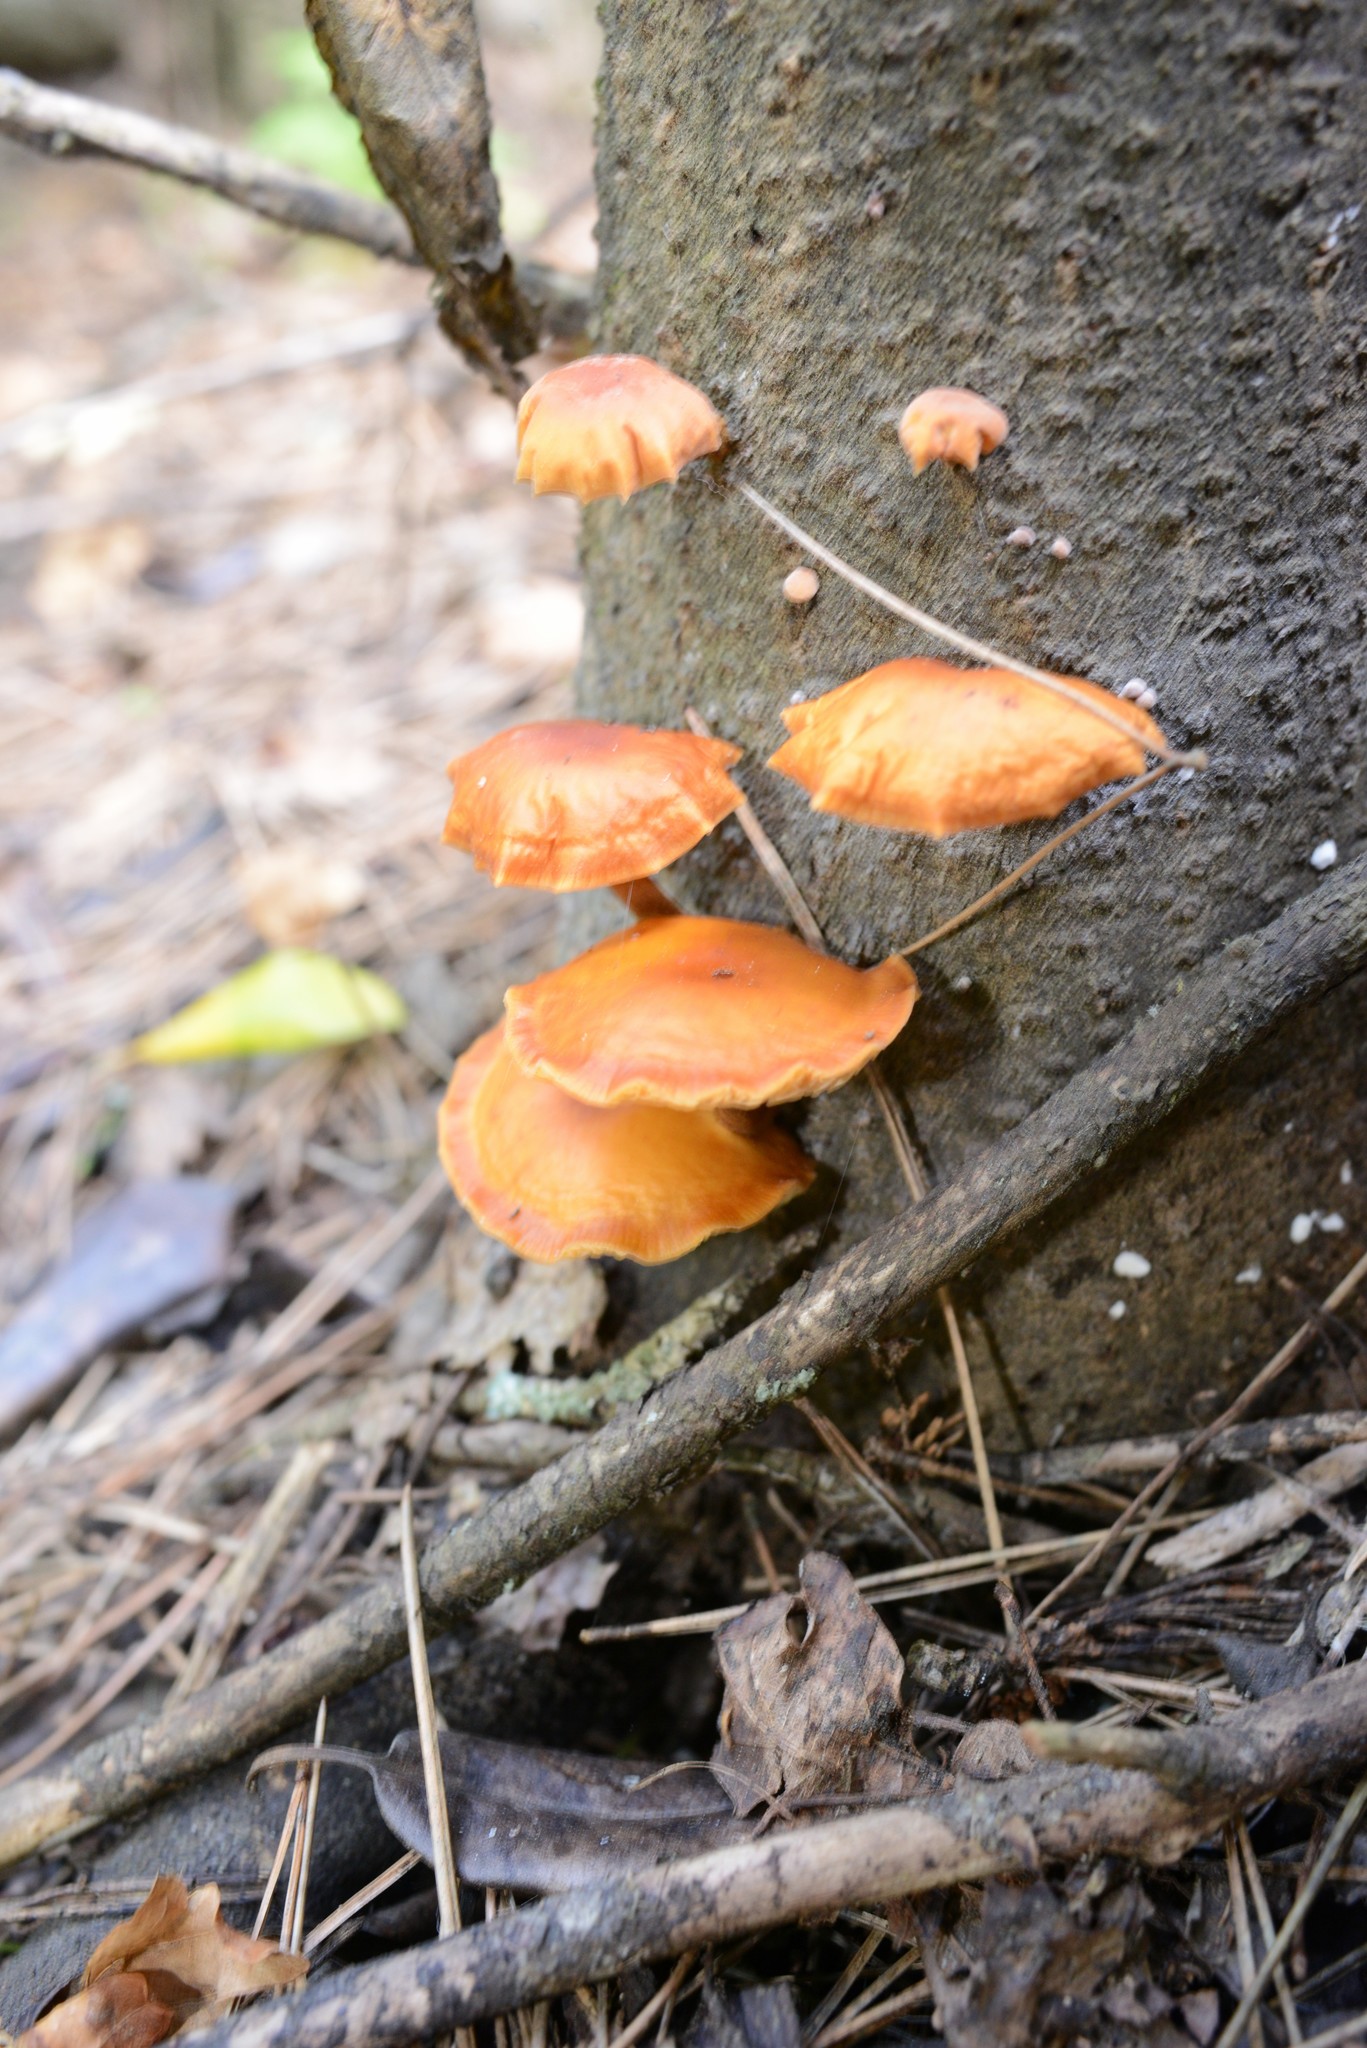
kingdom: Fungi
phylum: Basidiomycota
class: Agaricomycetes
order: Agaricales
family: Physalacriaceae
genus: Flammulina
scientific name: Flammulina velutipes
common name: Velvet shank
